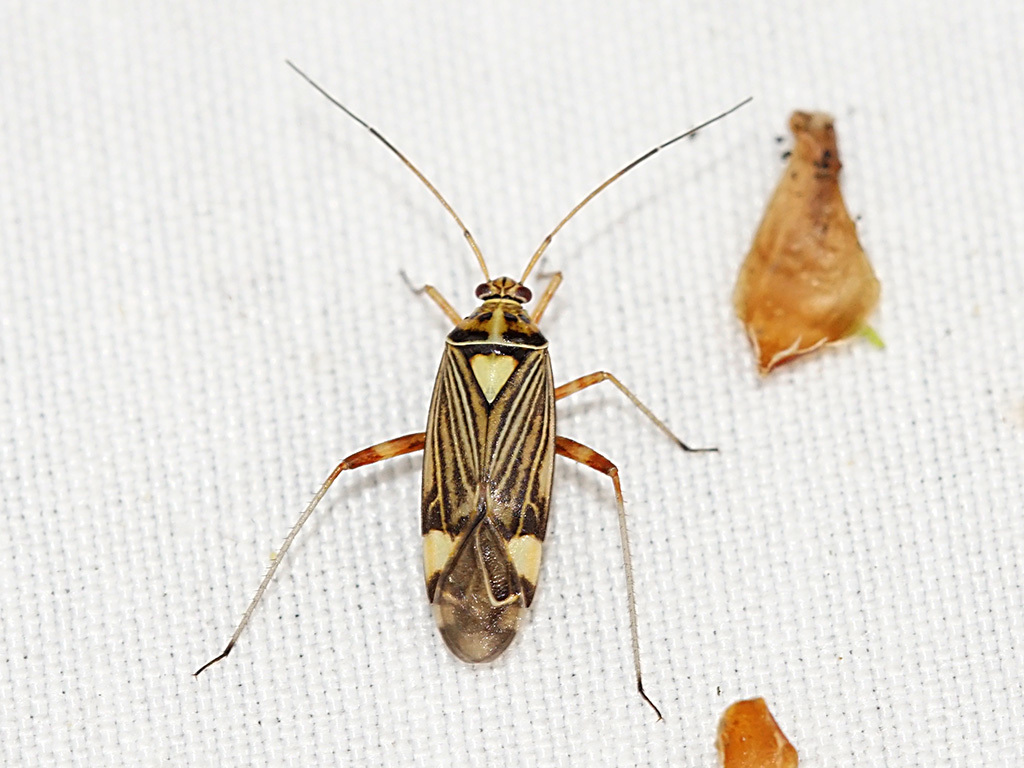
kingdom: Animalia
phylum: Arthropoda
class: Insecta
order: Hemiptera
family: Miridae
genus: Rhabdomiris
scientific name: Rhabdomiris striatellus
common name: Plant bug
